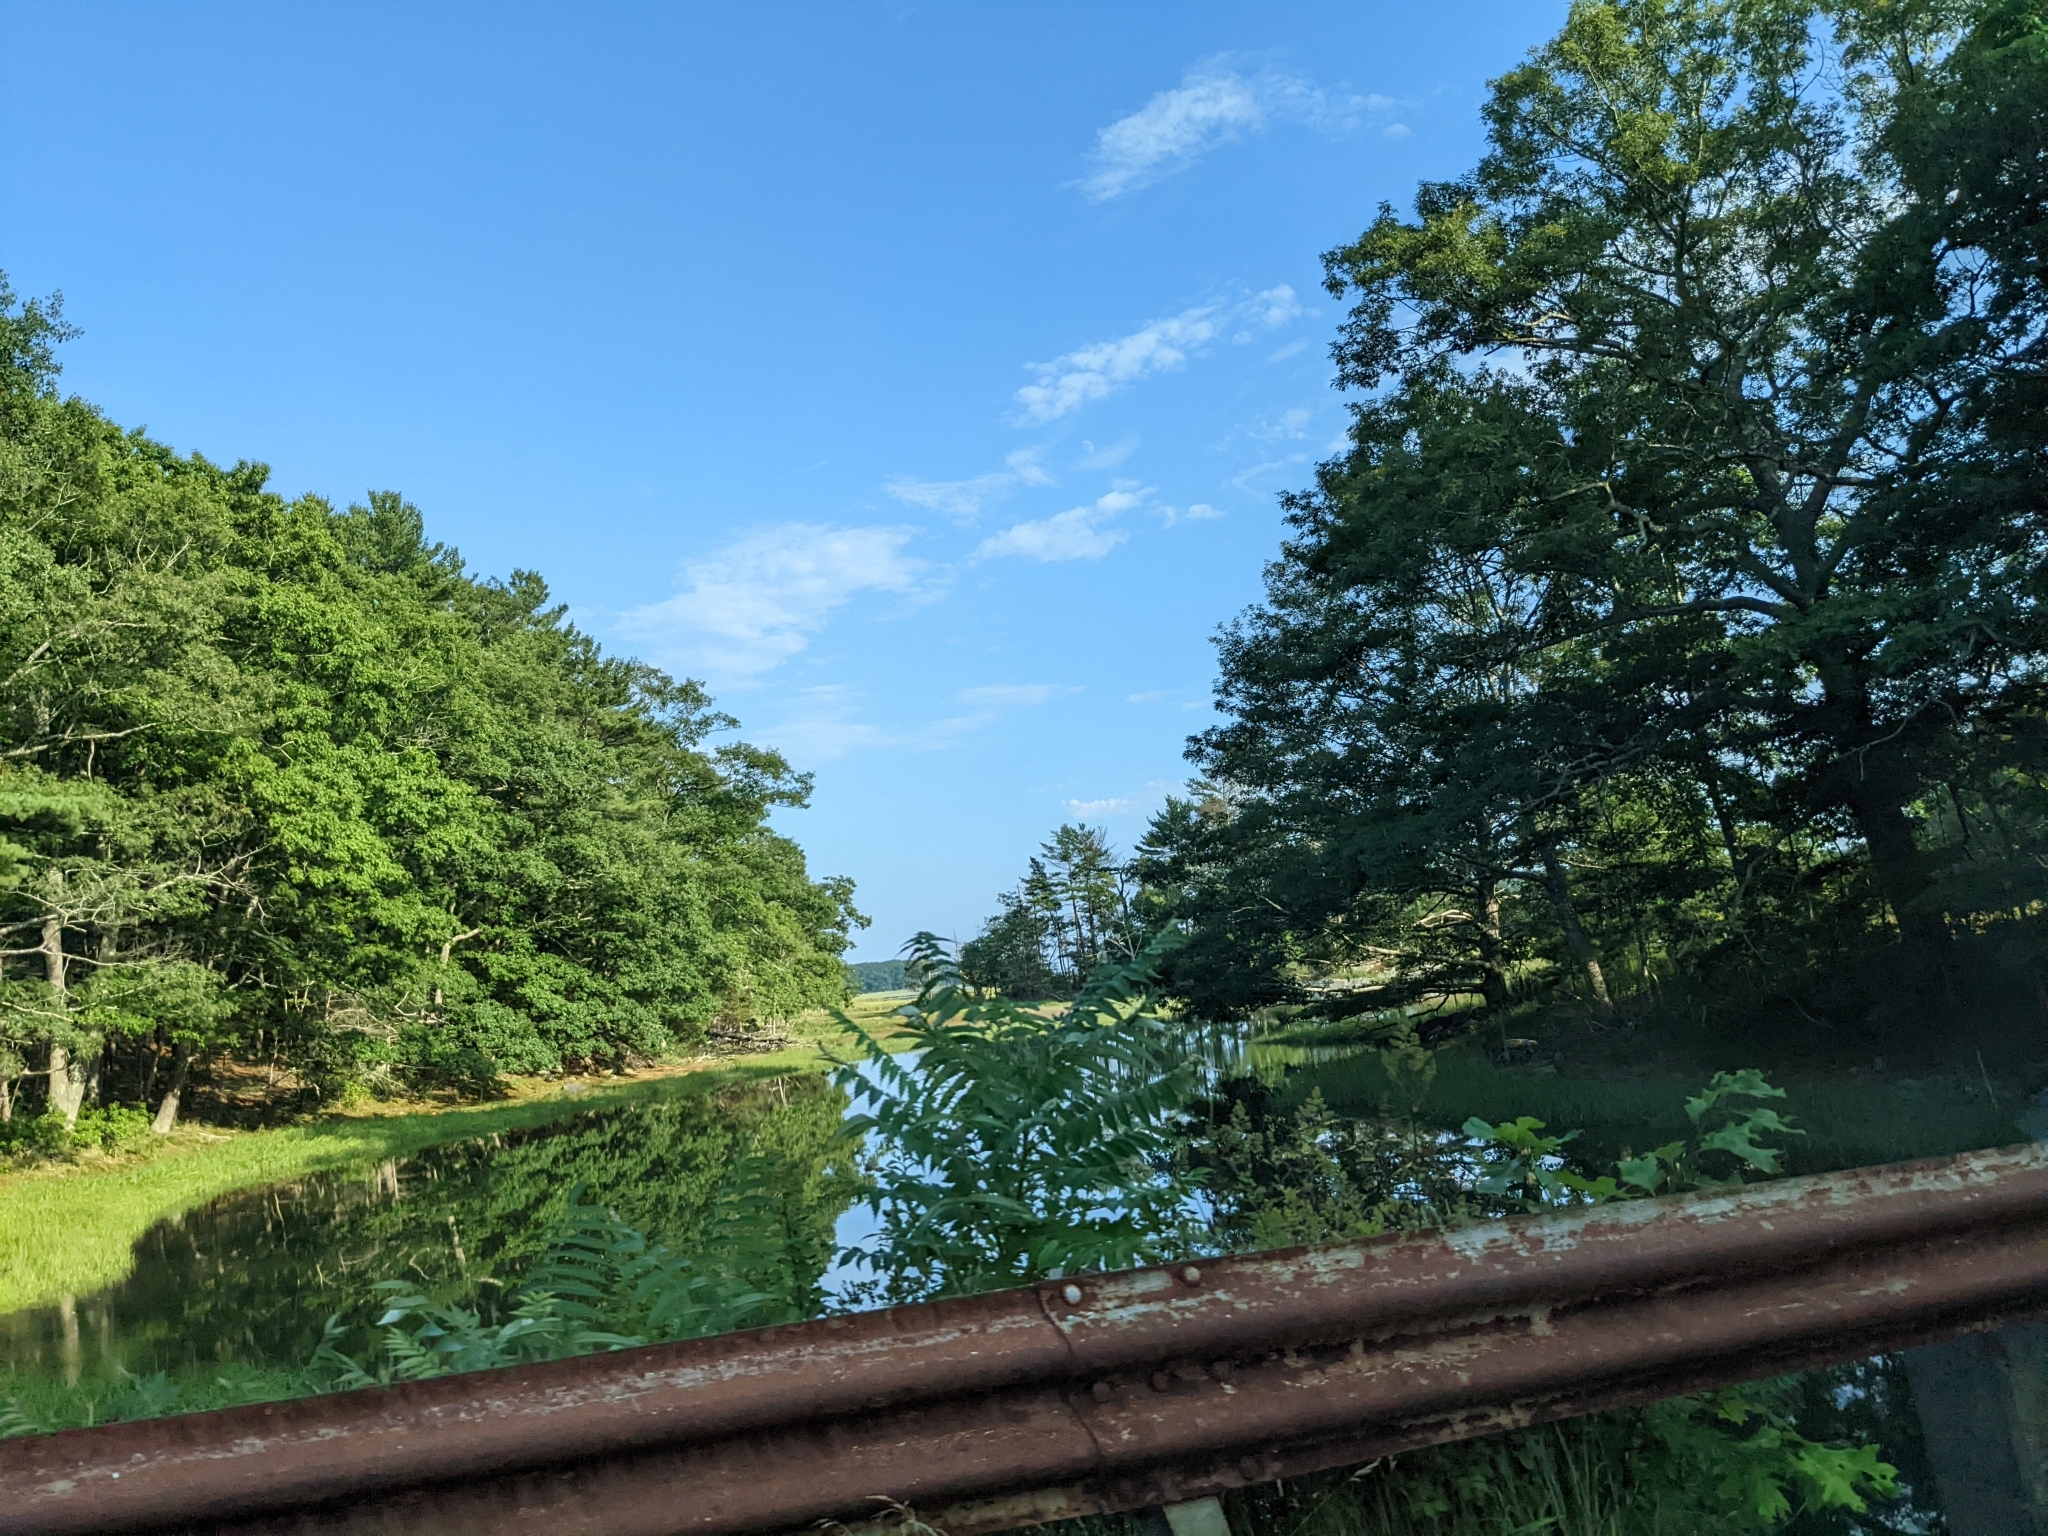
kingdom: Plantae
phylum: Tracheophyta
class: Pinopsida
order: Pinales
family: Pinaceae
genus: Pinus
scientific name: Pinus strobus
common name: Weymouth pine
